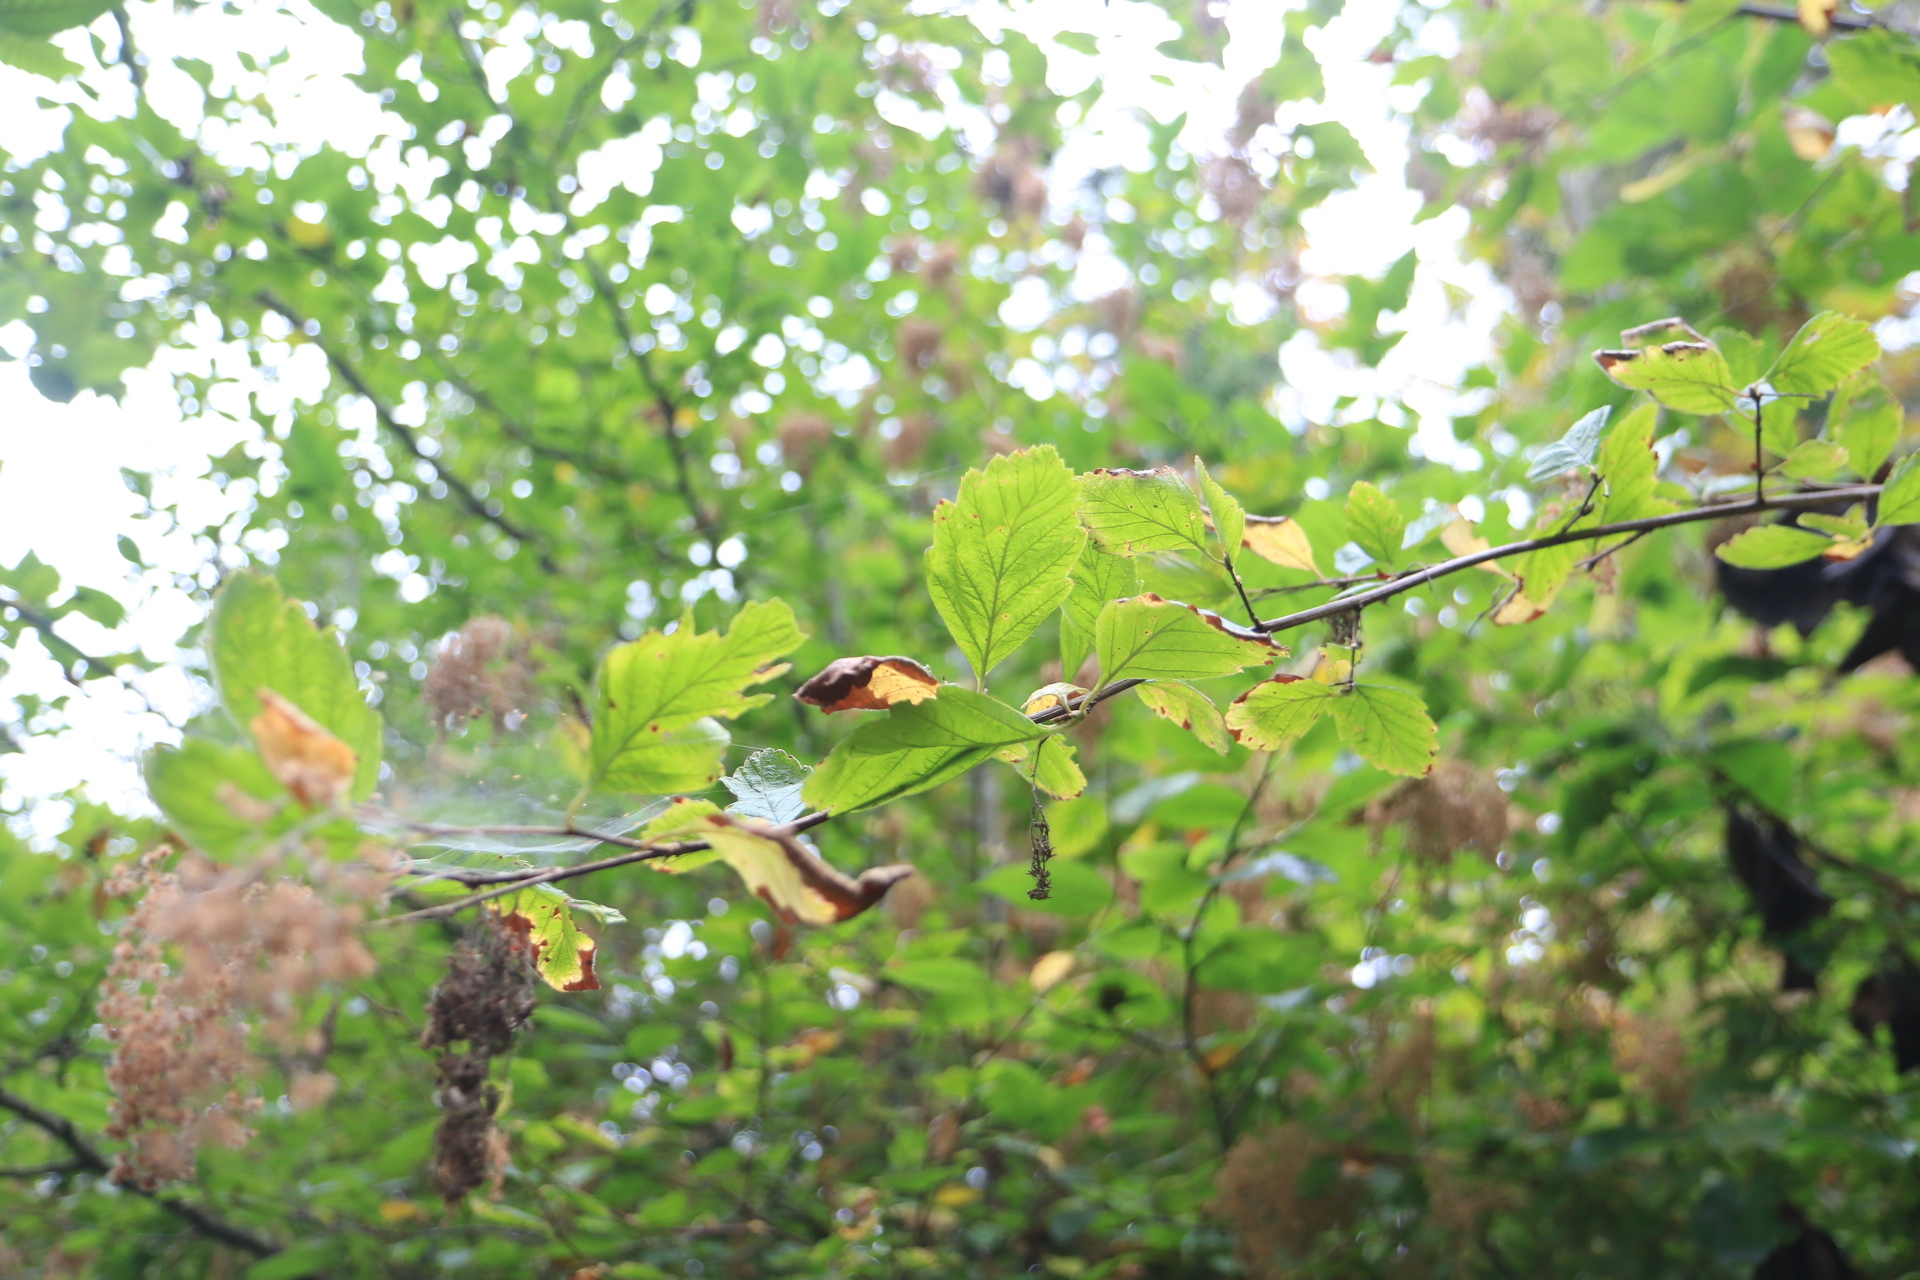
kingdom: Plantae
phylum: Tracheophyta
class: Magnoliopsida
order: Rosales
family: Rosaceae
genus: Holodiscus
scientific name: Holodiscus discolor
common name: Oceanspray
